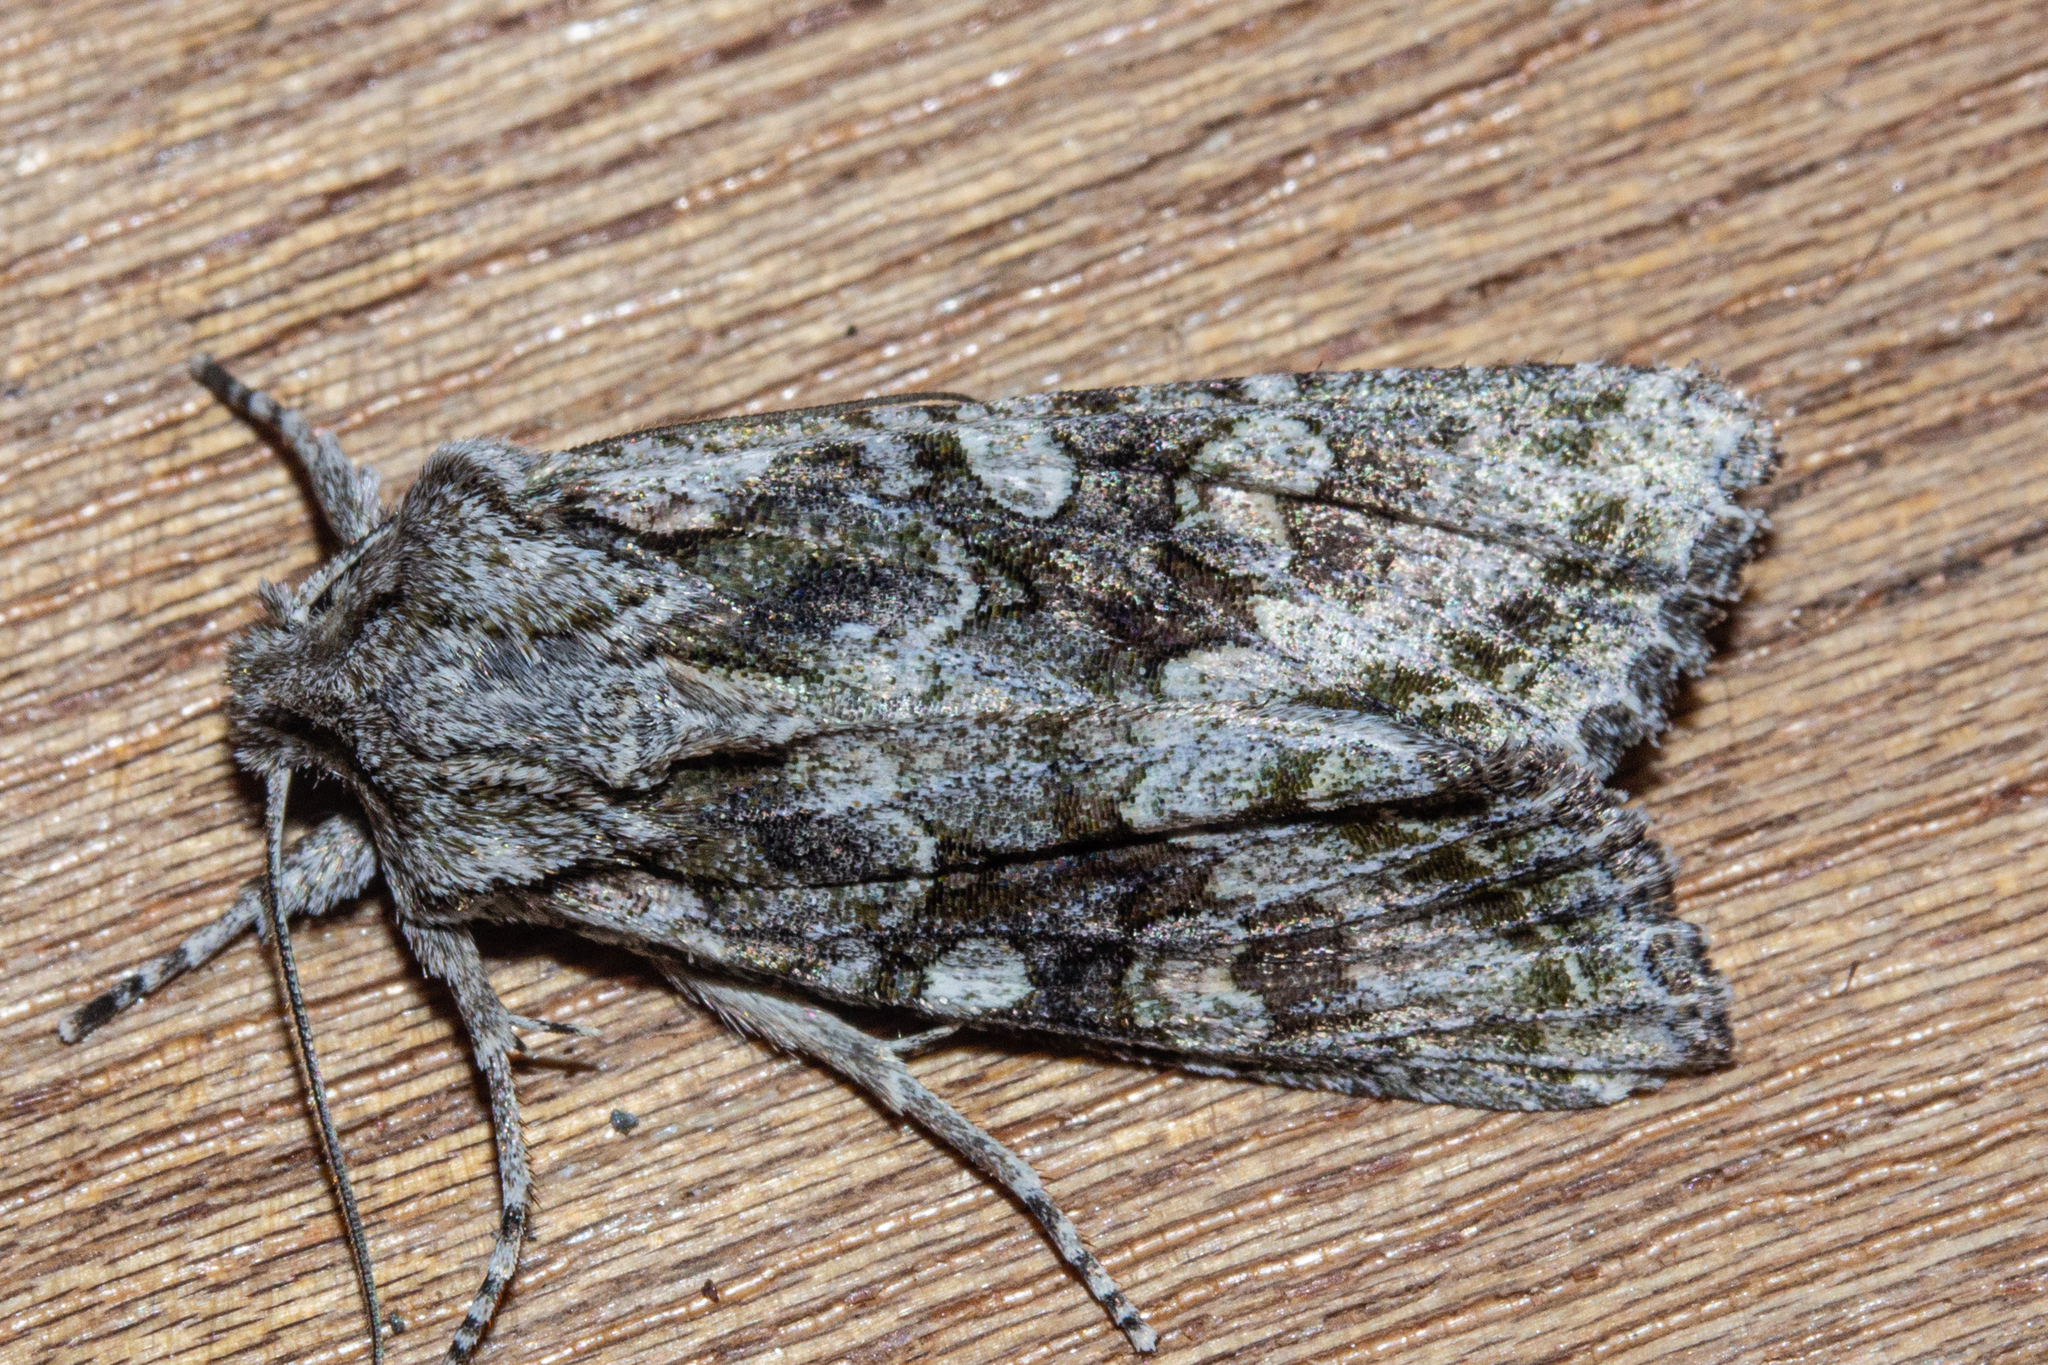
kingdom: Animalia
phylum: Arthropoda
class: Insecta
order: Lepidoptera
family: Noctuidae
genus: Ichneutica
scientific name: Ichneutica mutans
